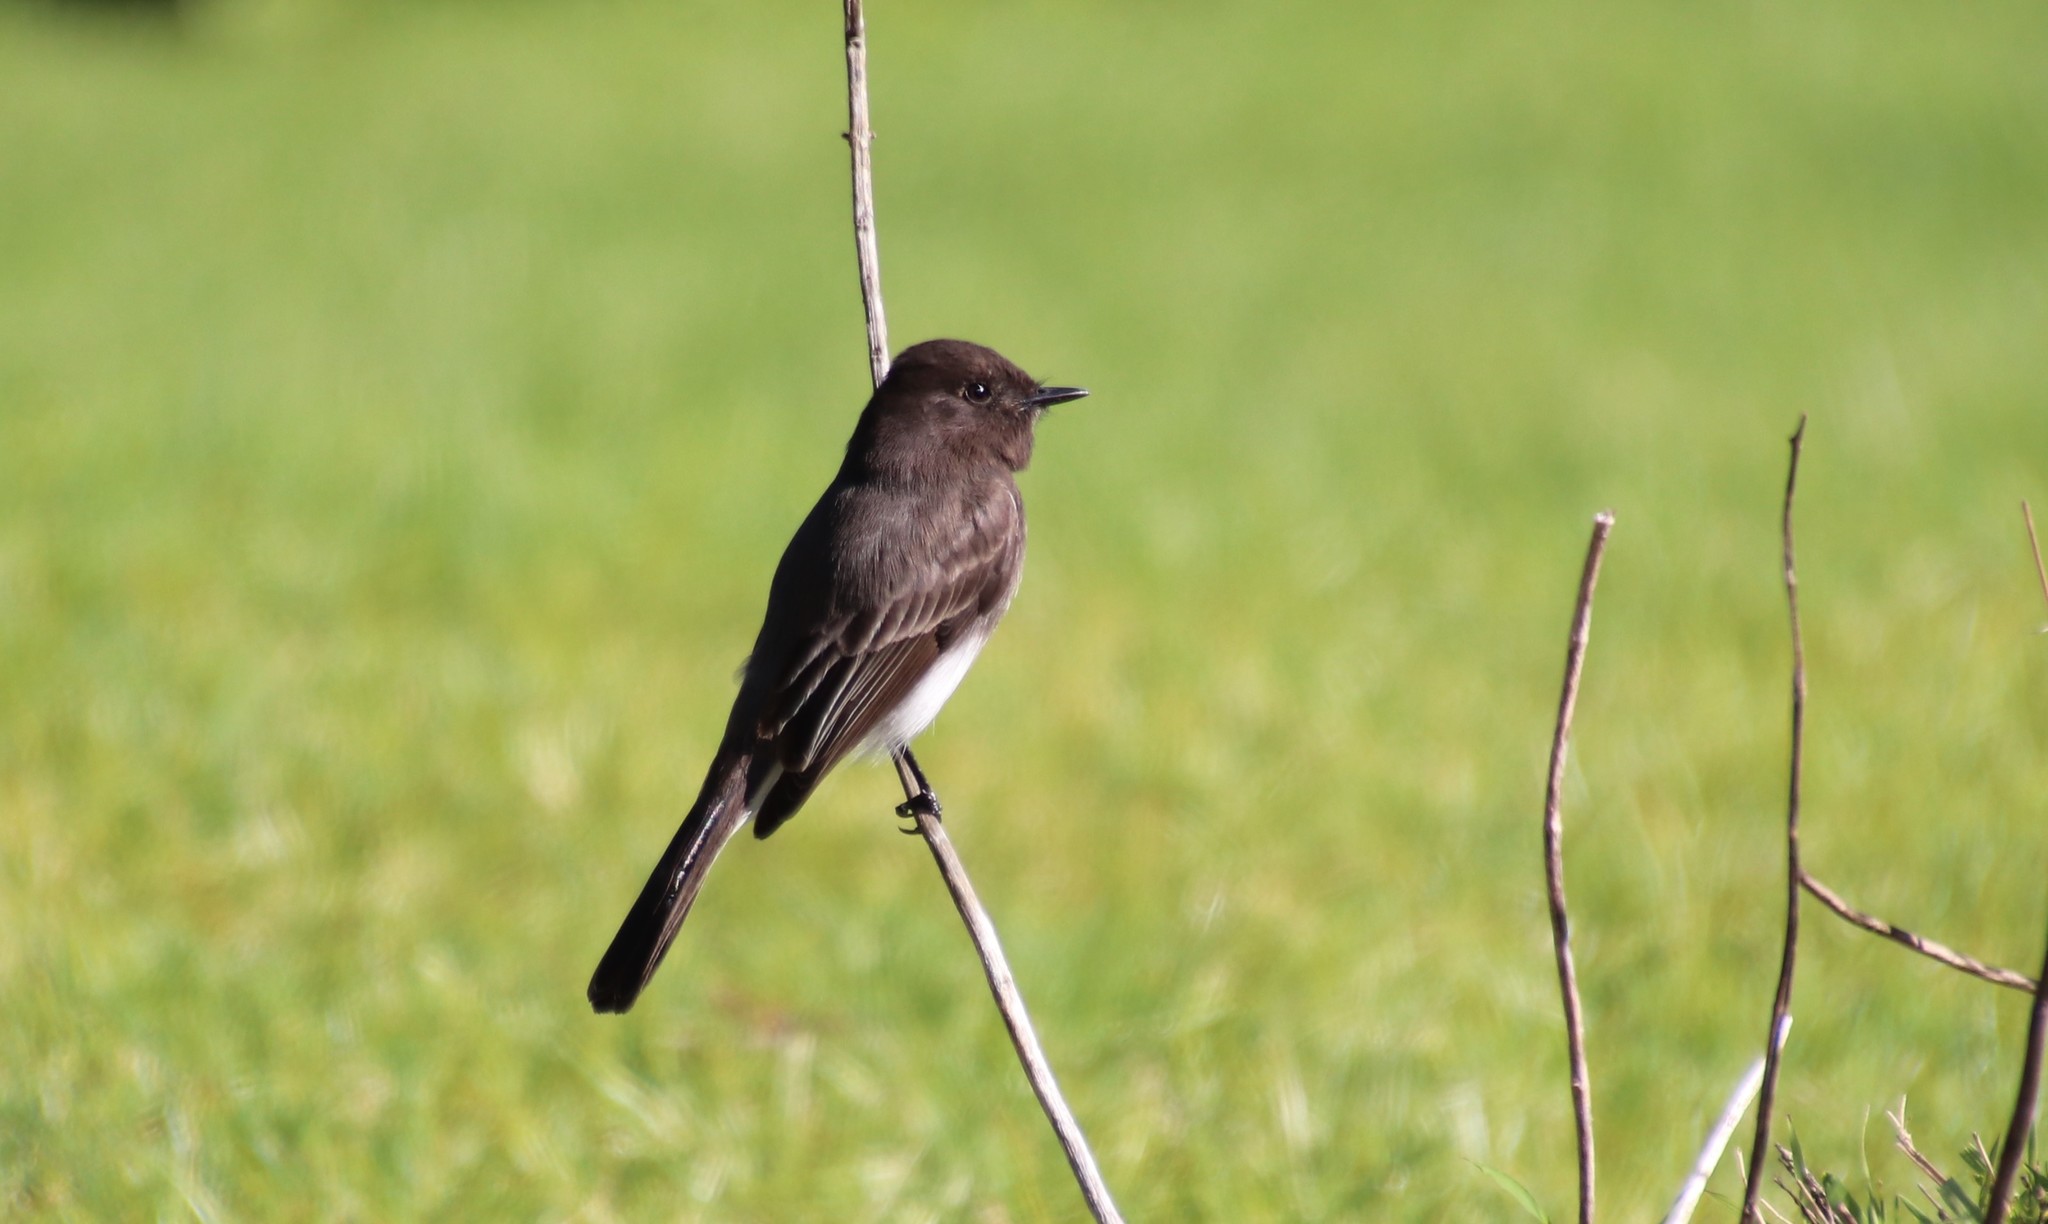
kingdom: Animalia
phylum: Chordata
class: Aves
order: Passeriformes
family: Tyrannidae
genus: Sayornis
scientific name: Sayornis nigricans
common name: Black phoebe
